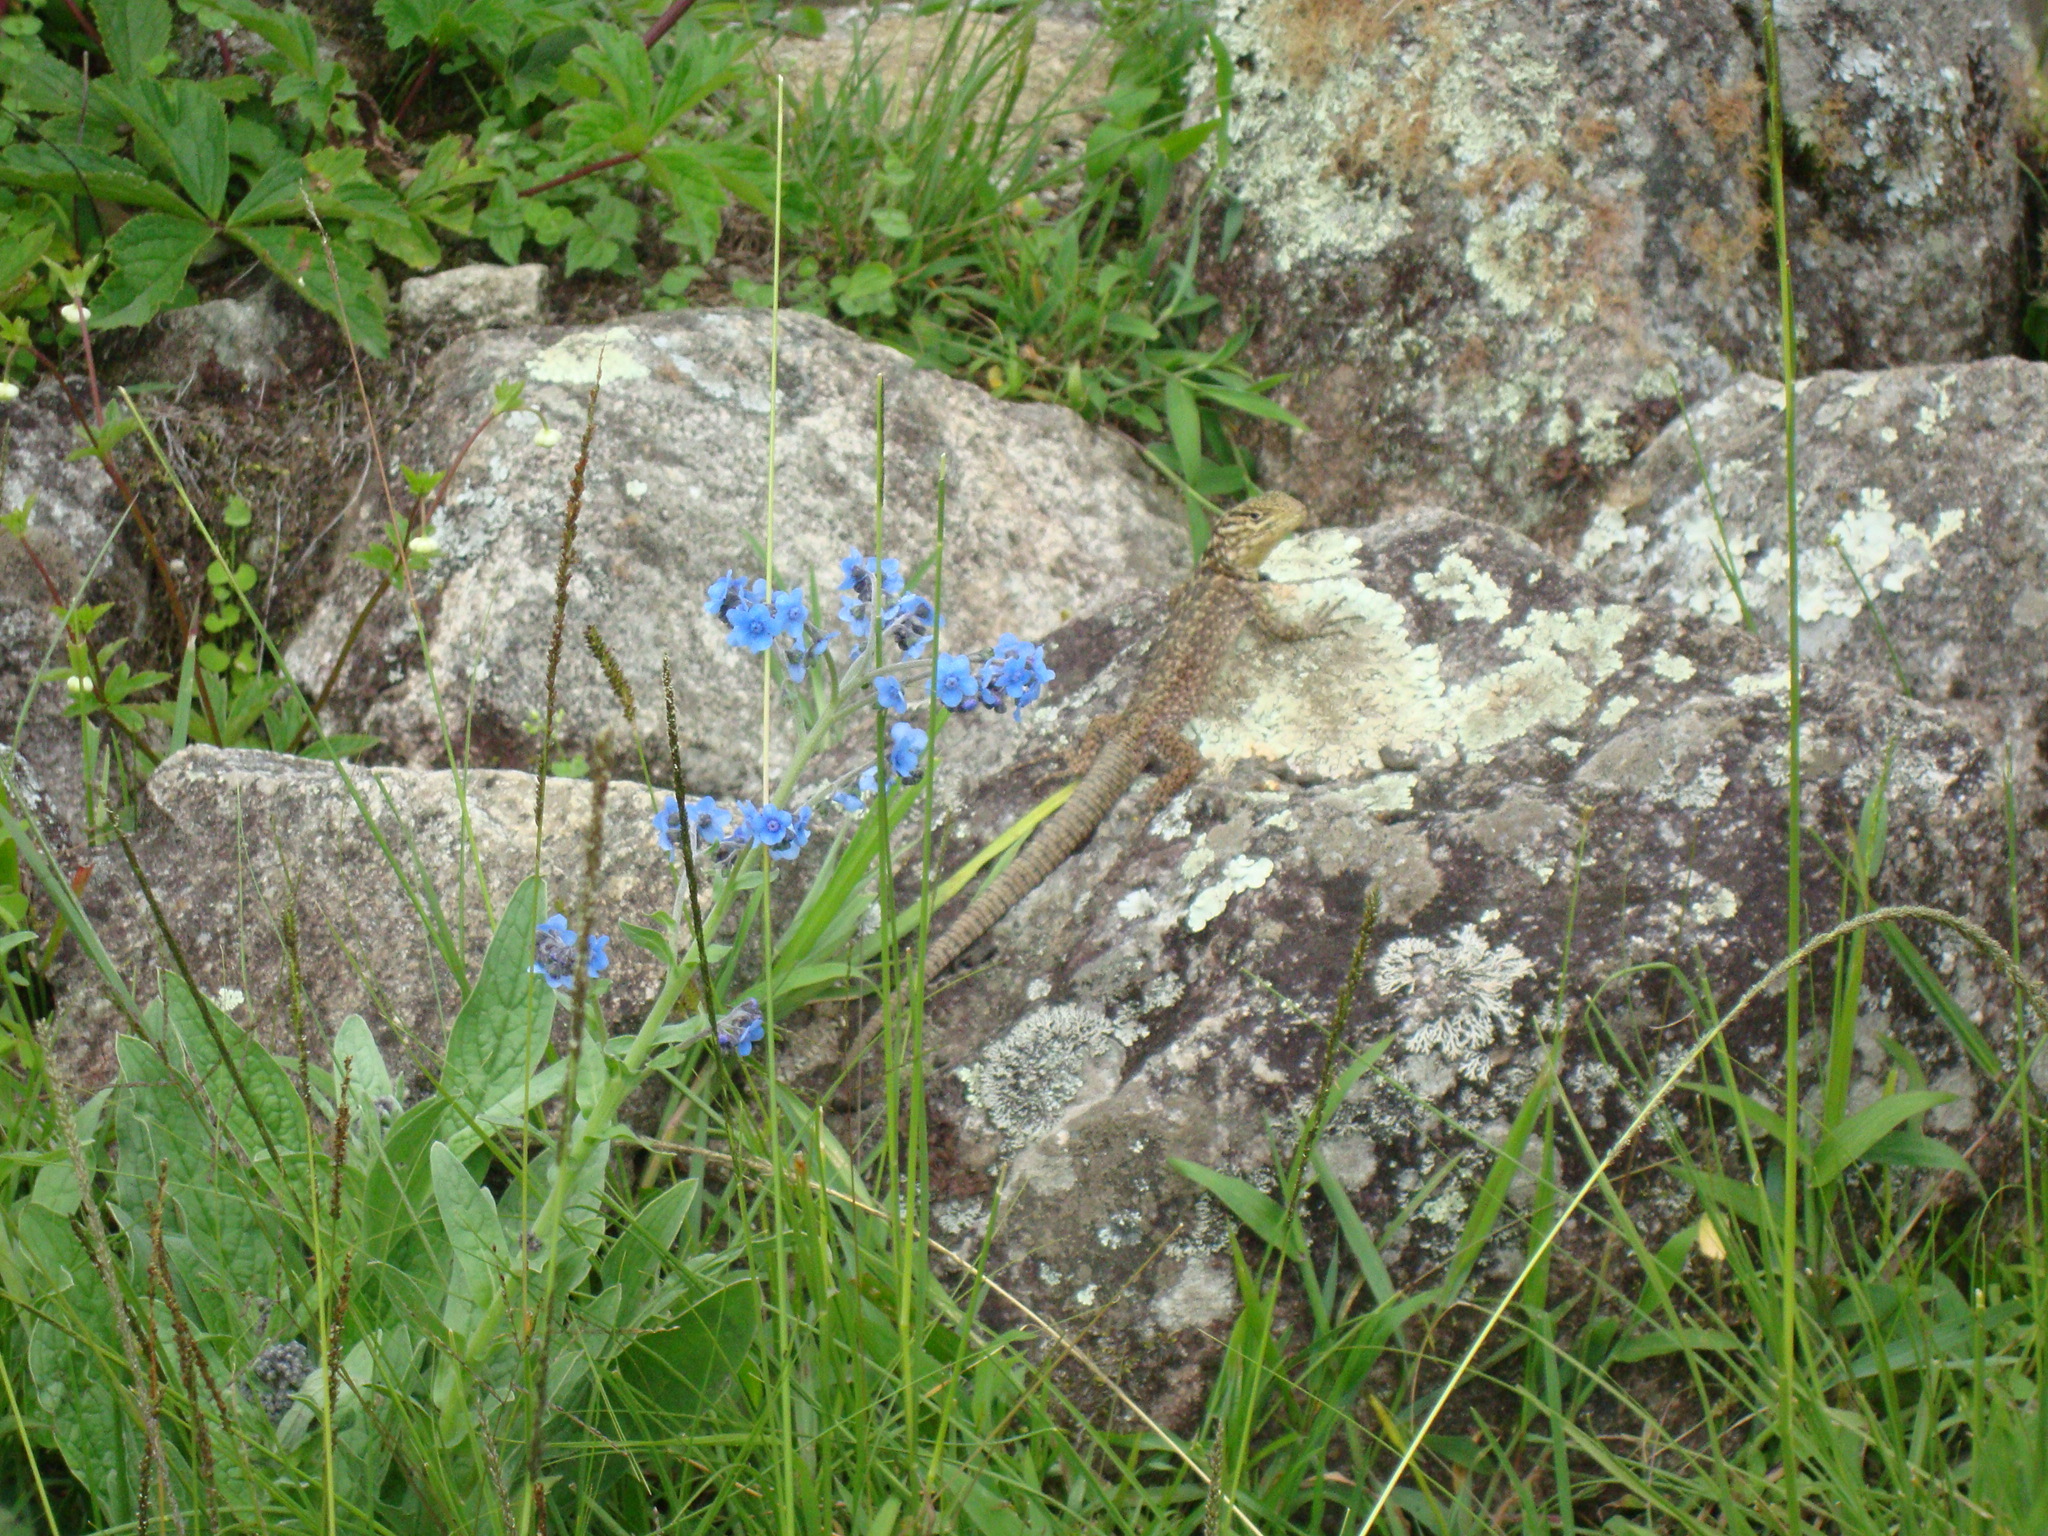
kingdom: Animalia
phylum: Chordata
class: Squamata
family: Tropiduridae
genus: Stenocercus
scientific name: Stenocercus crassicaudatus
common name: Spiny whorltail iguana
